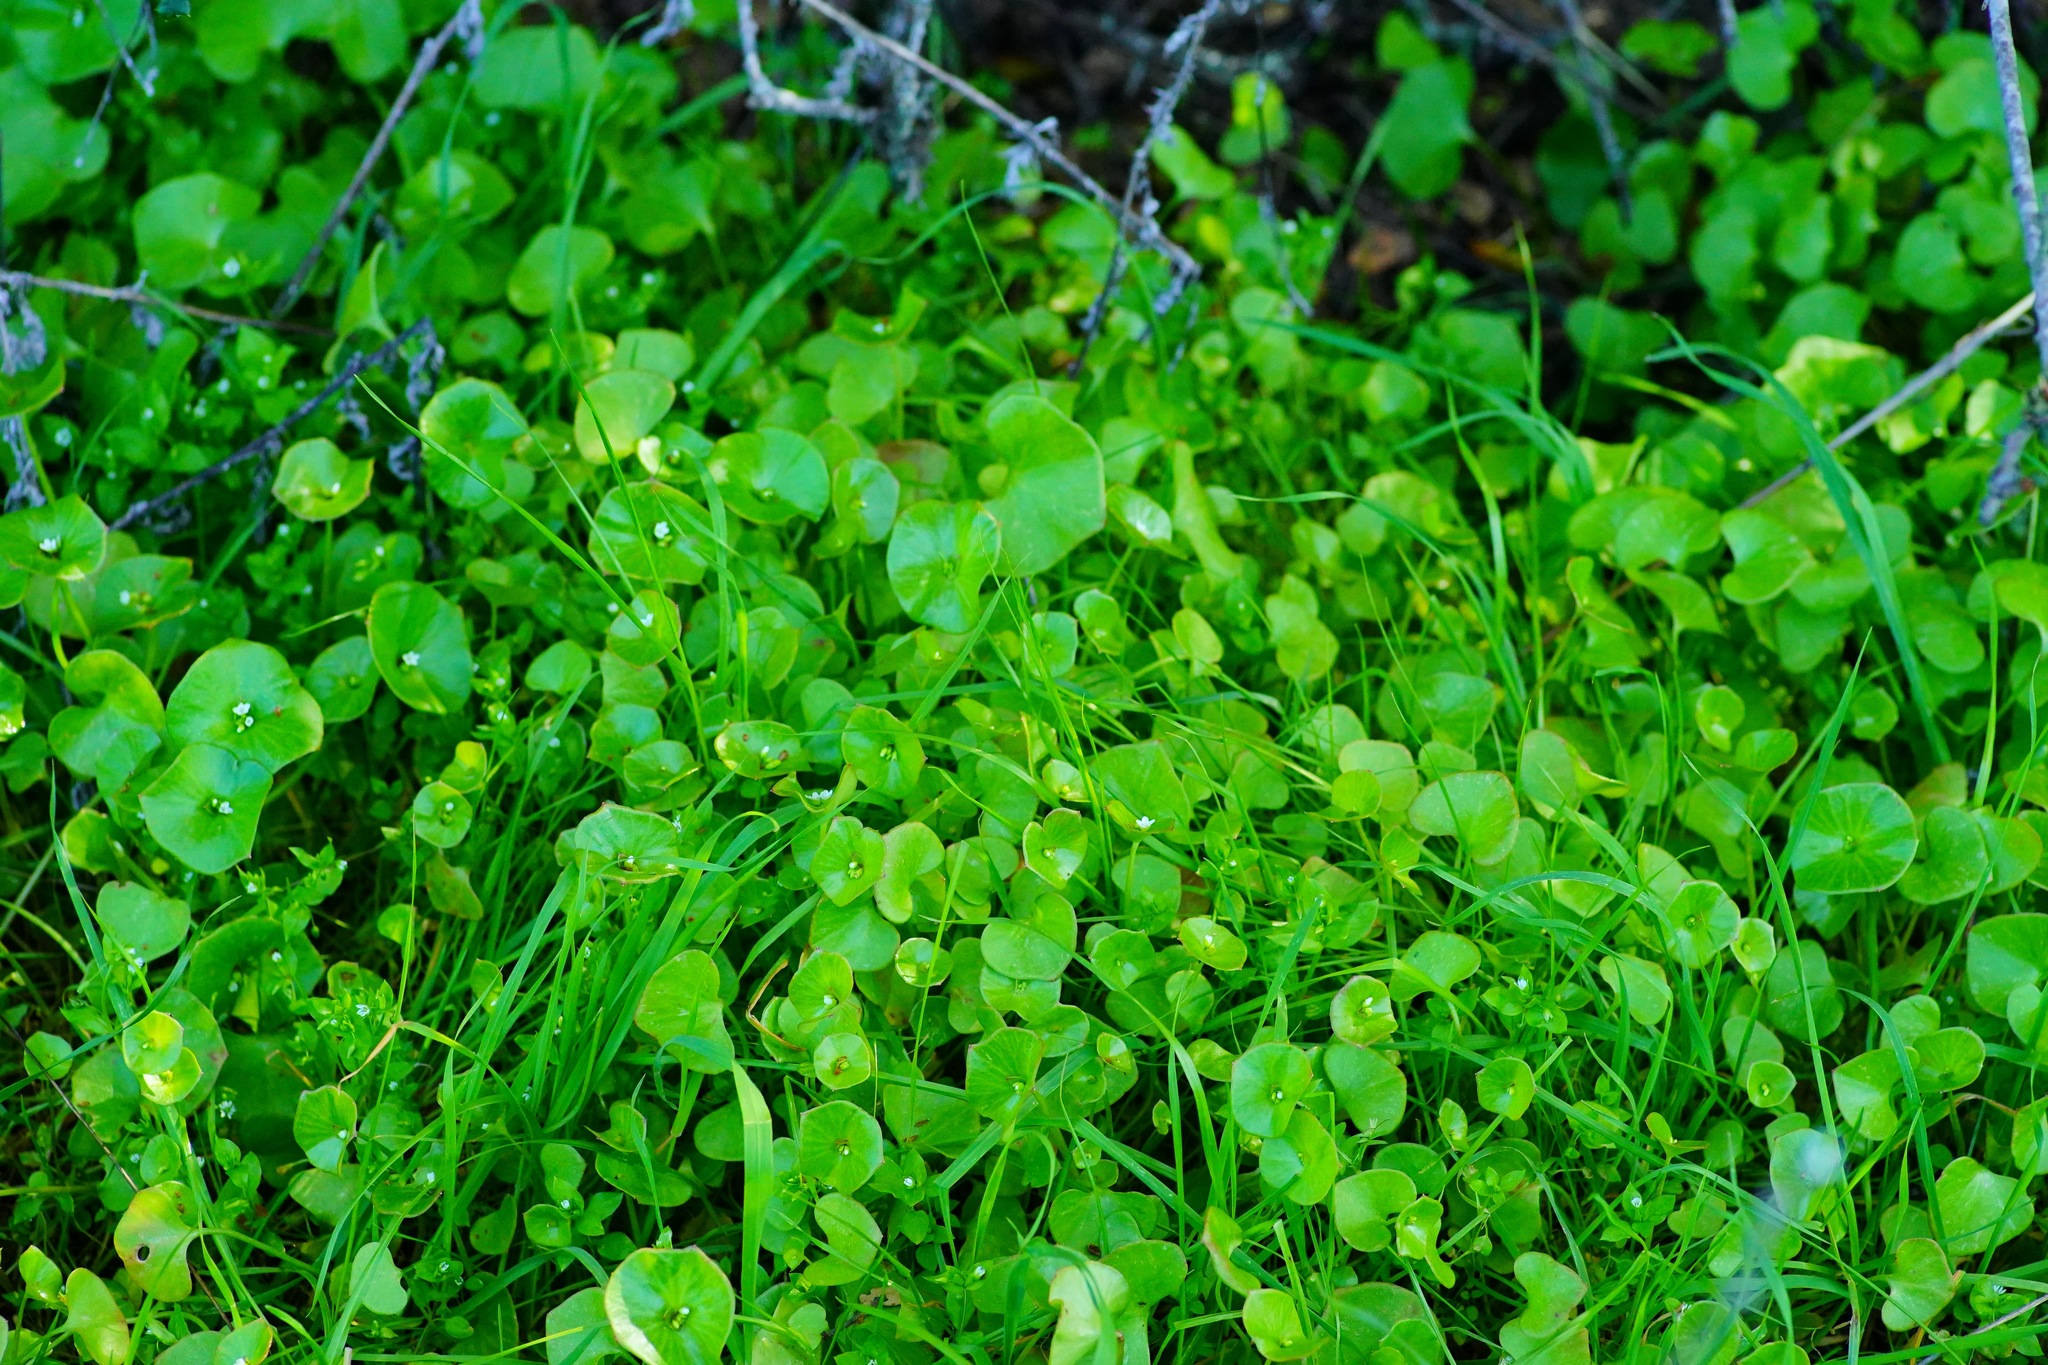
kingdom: Plantae
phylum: Tracheophyta
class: Magnoliopsida
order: Caryophyllales
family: Montiaceae
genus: Claytonia
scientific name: Claytonia perfoliata
